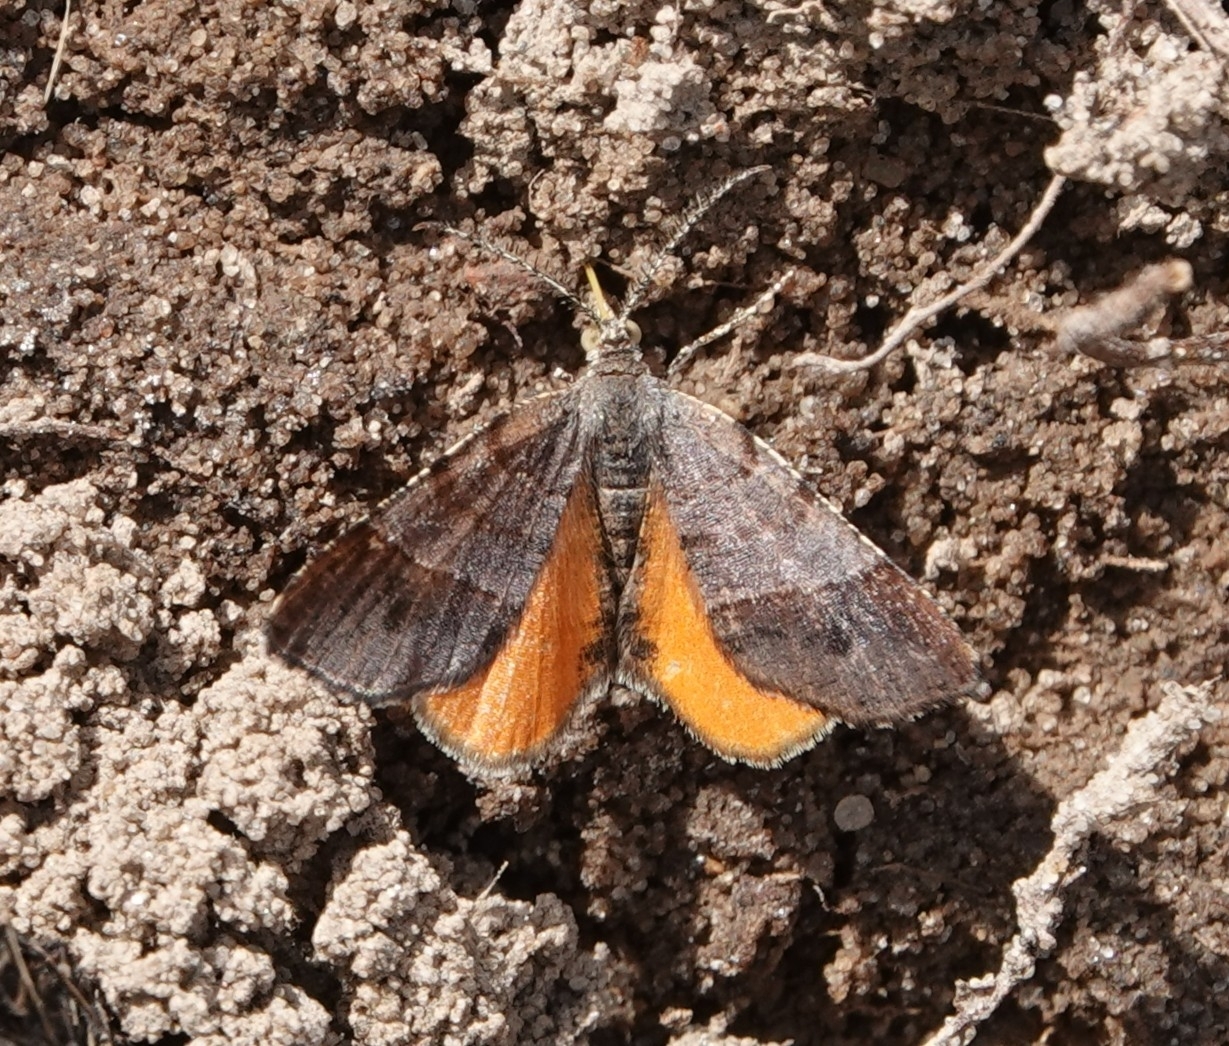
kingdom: Animalia
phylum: Arthropoda
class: Insecta
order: Lepidoptera
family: Geometridae
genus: Mellilla
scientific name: Mellilla xanthometata
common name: Orange wing moth
